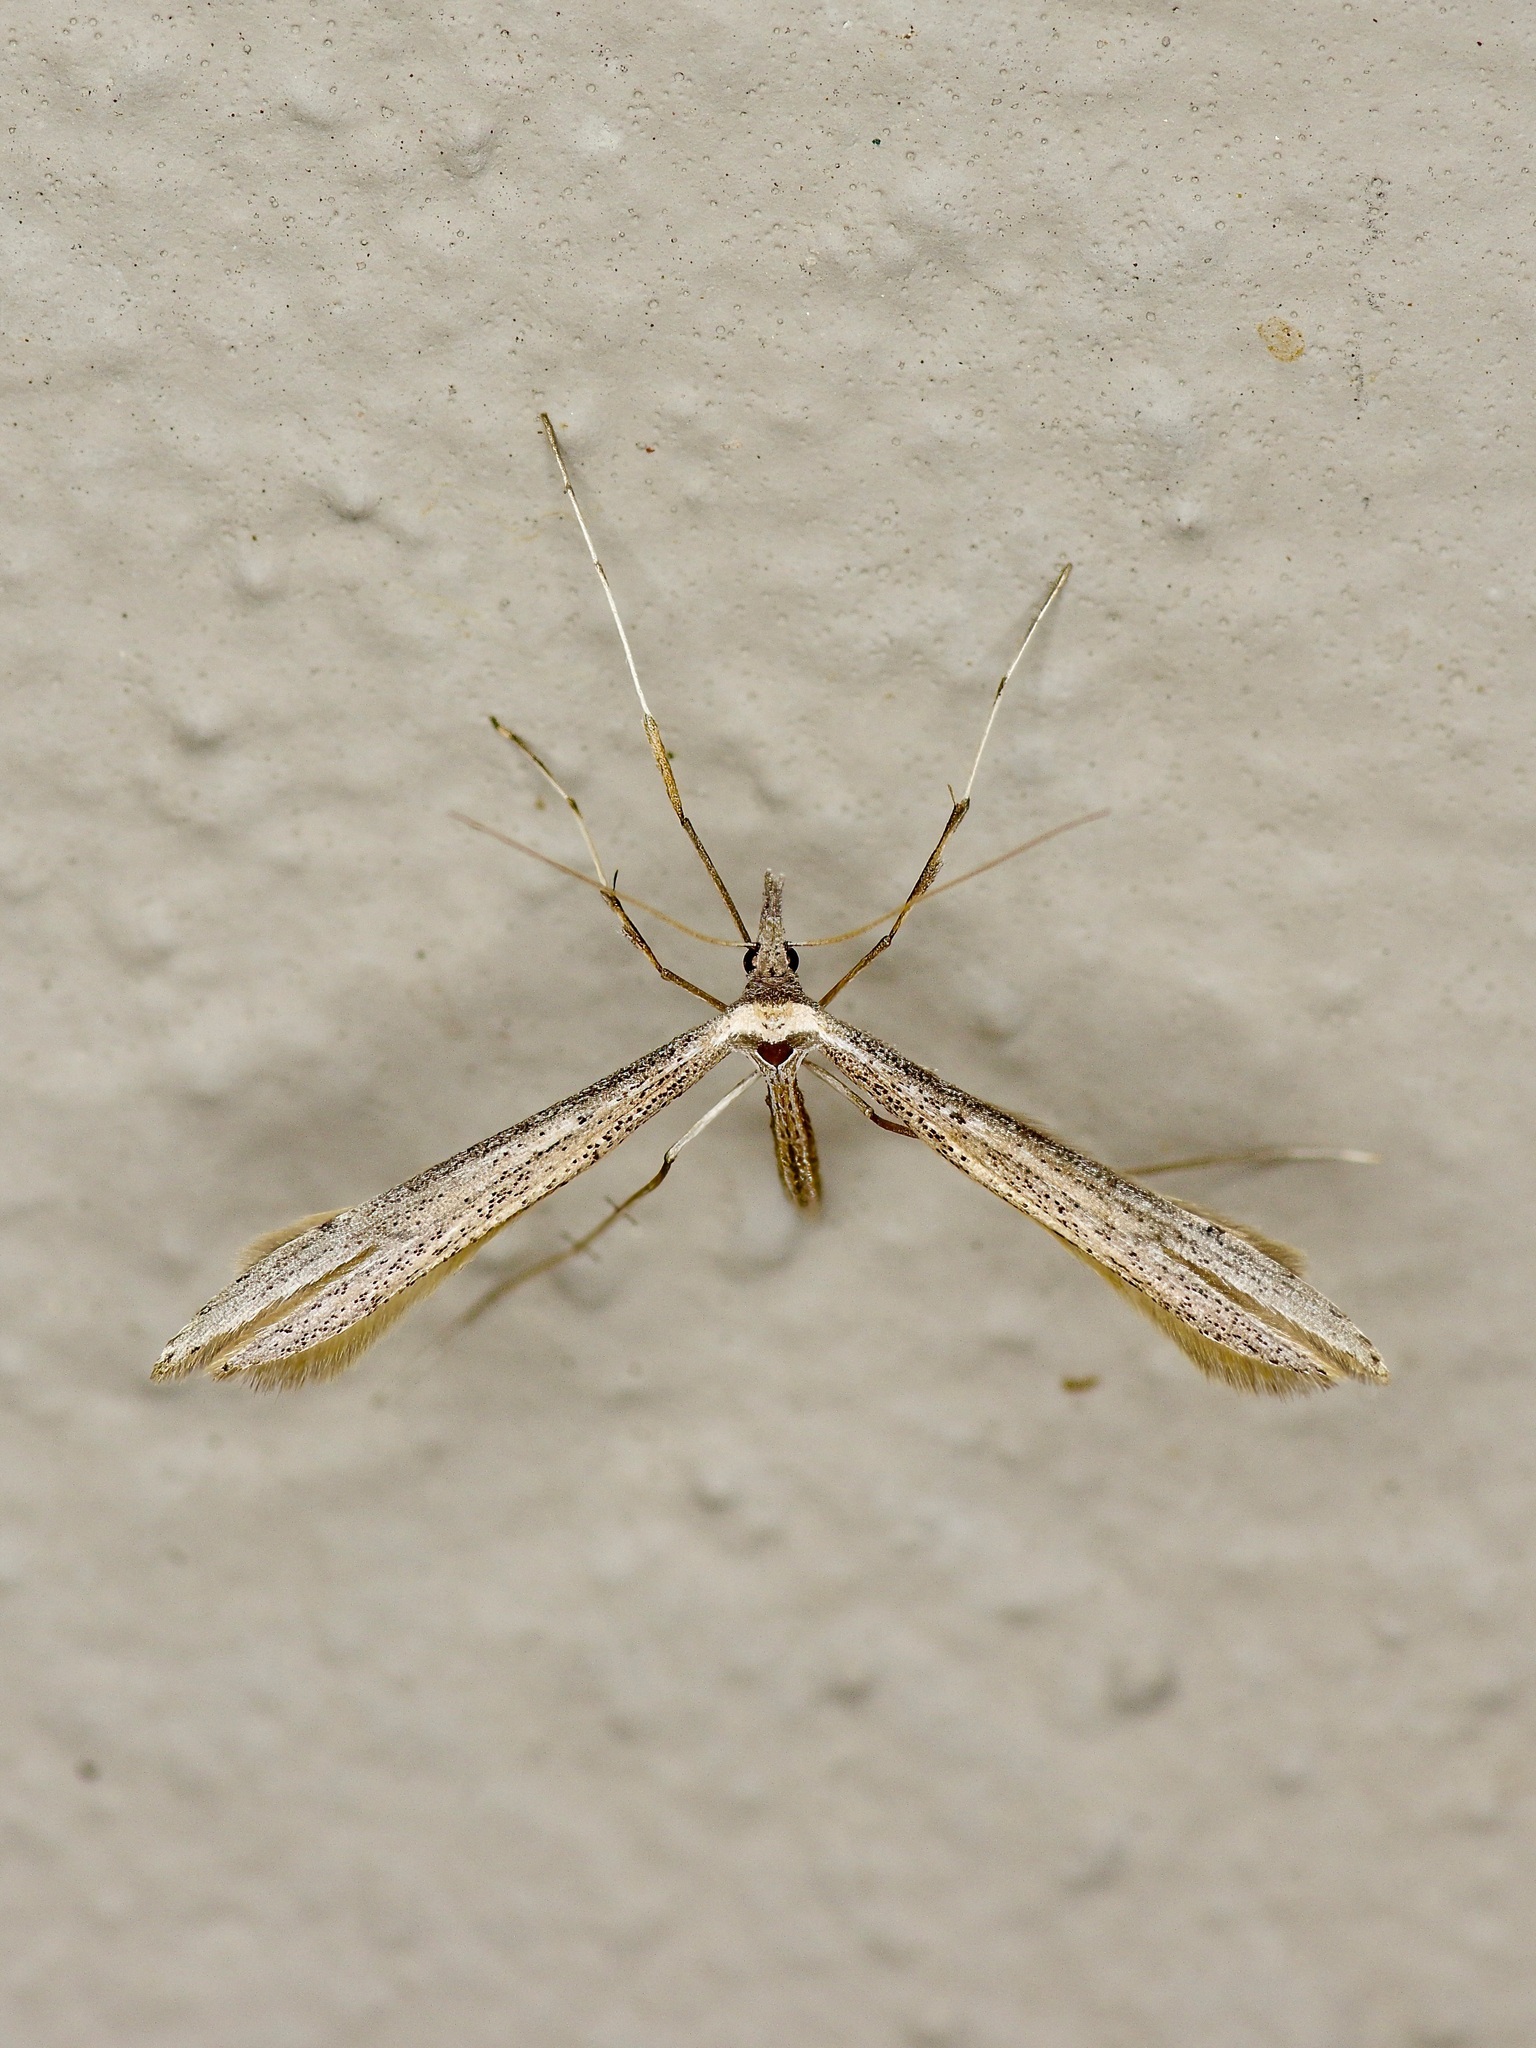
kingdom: Animalia
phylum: Arthropoda
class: Insecta
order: Lepidoptera
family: Pterophoridae
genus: Hellinsia
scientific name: Hellinsia longifrons
